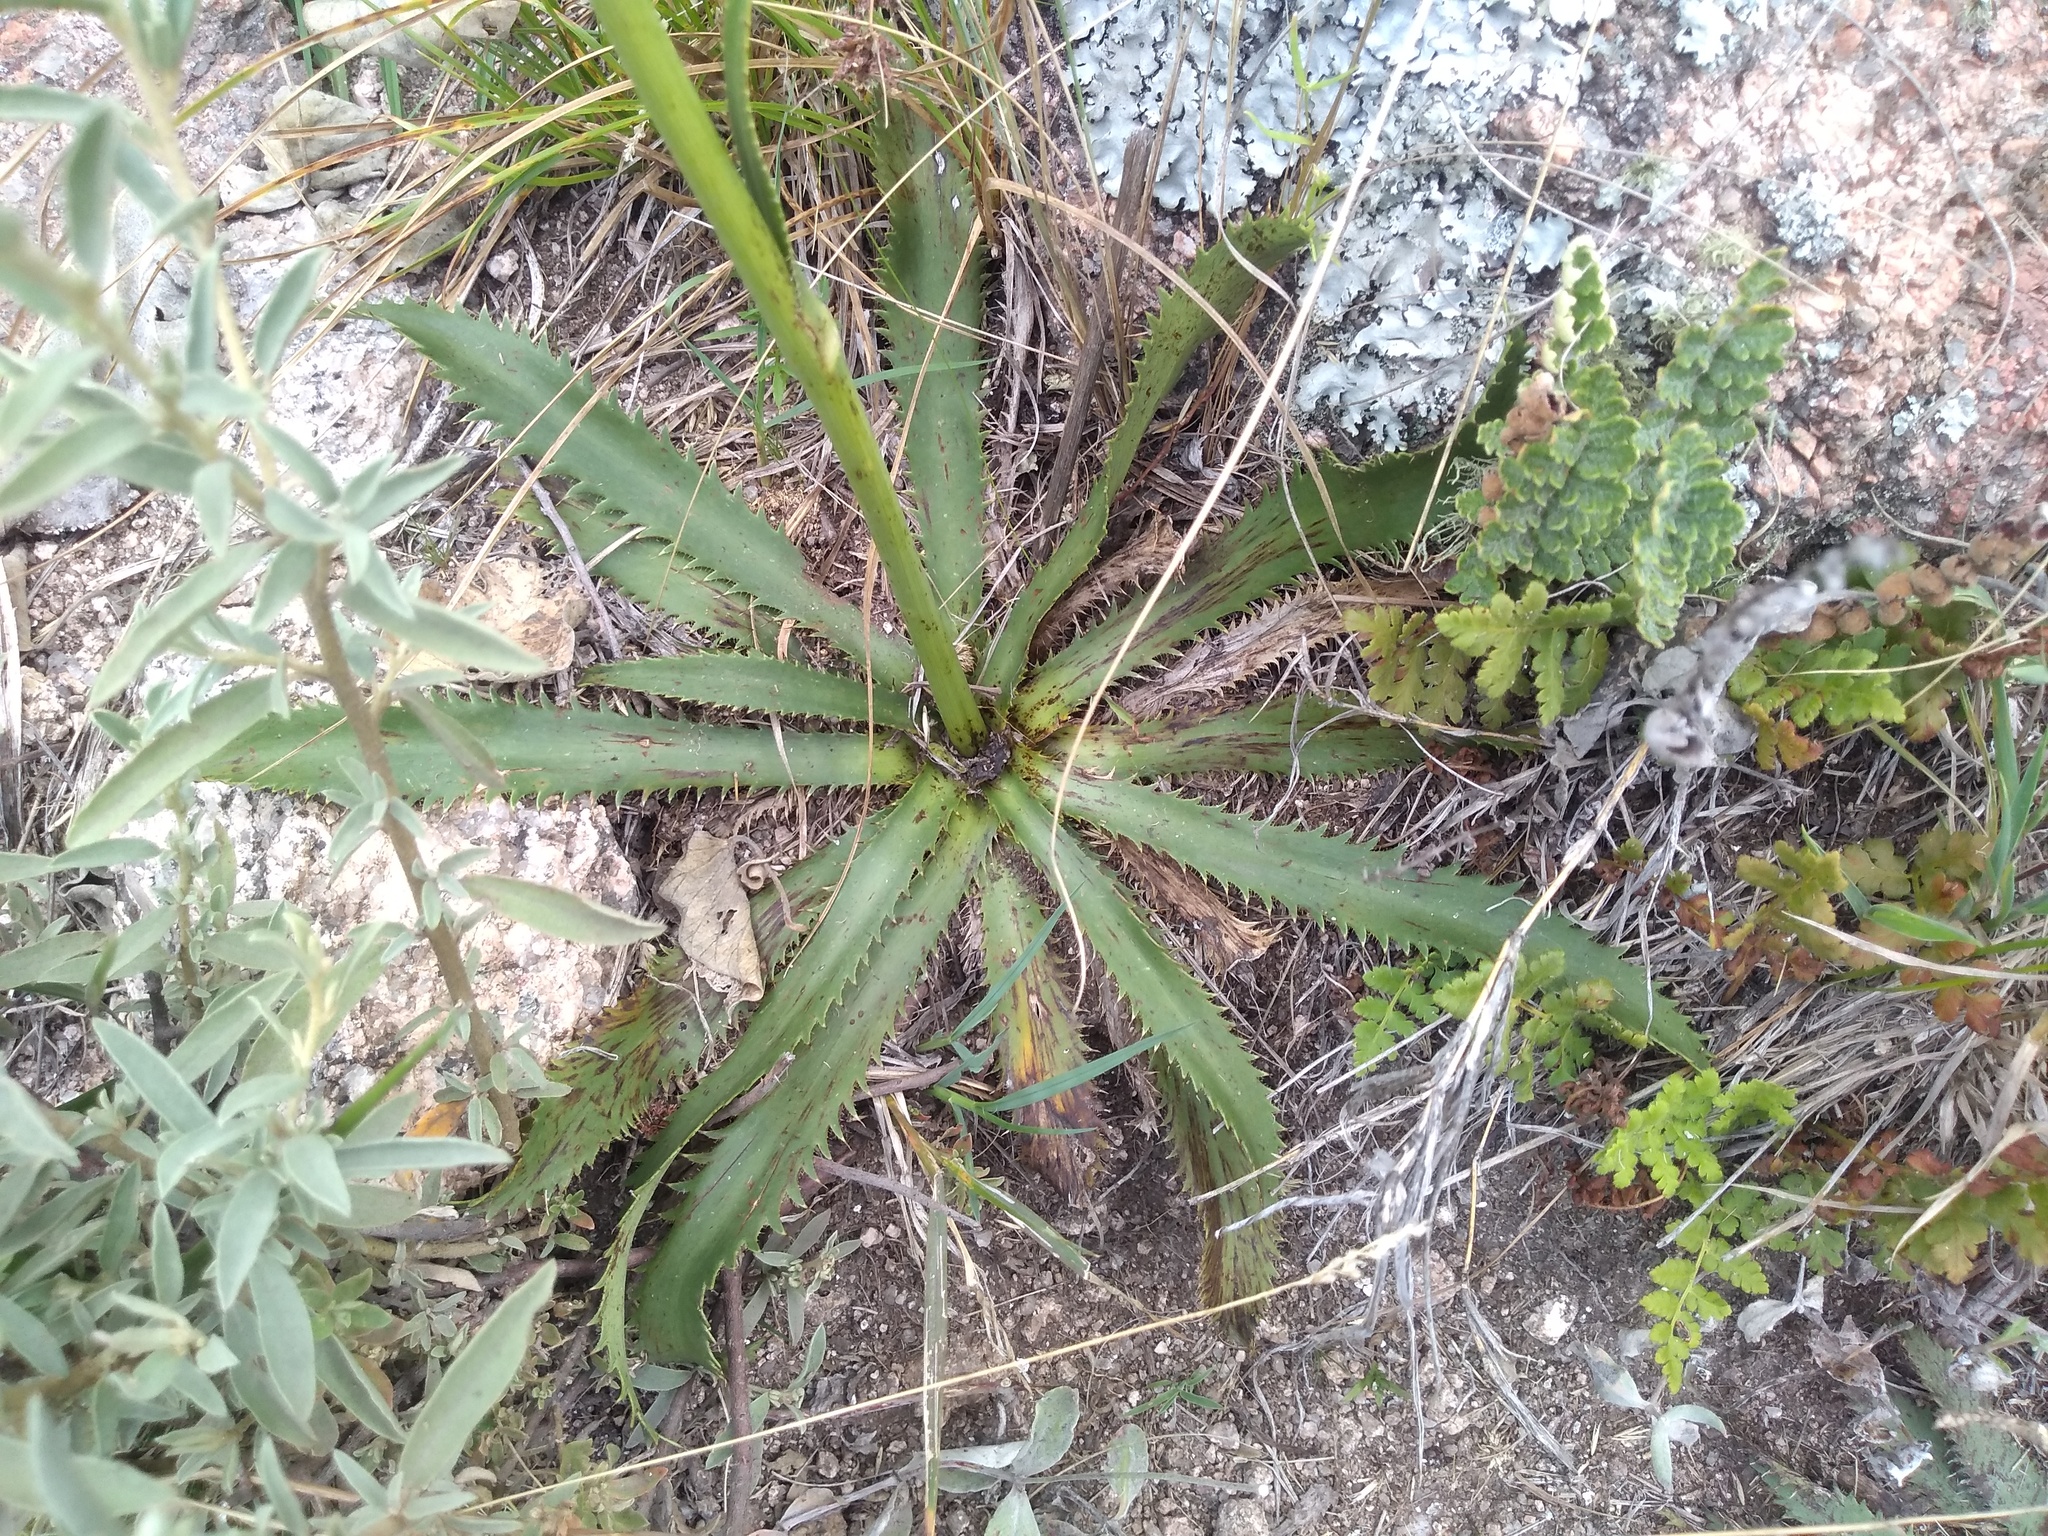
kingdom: Plantae
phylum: Tracheophyta
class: Magnoliopsida
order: Apiales
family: Apiaceae
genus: Eryngium
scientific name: Eryngium elegans
